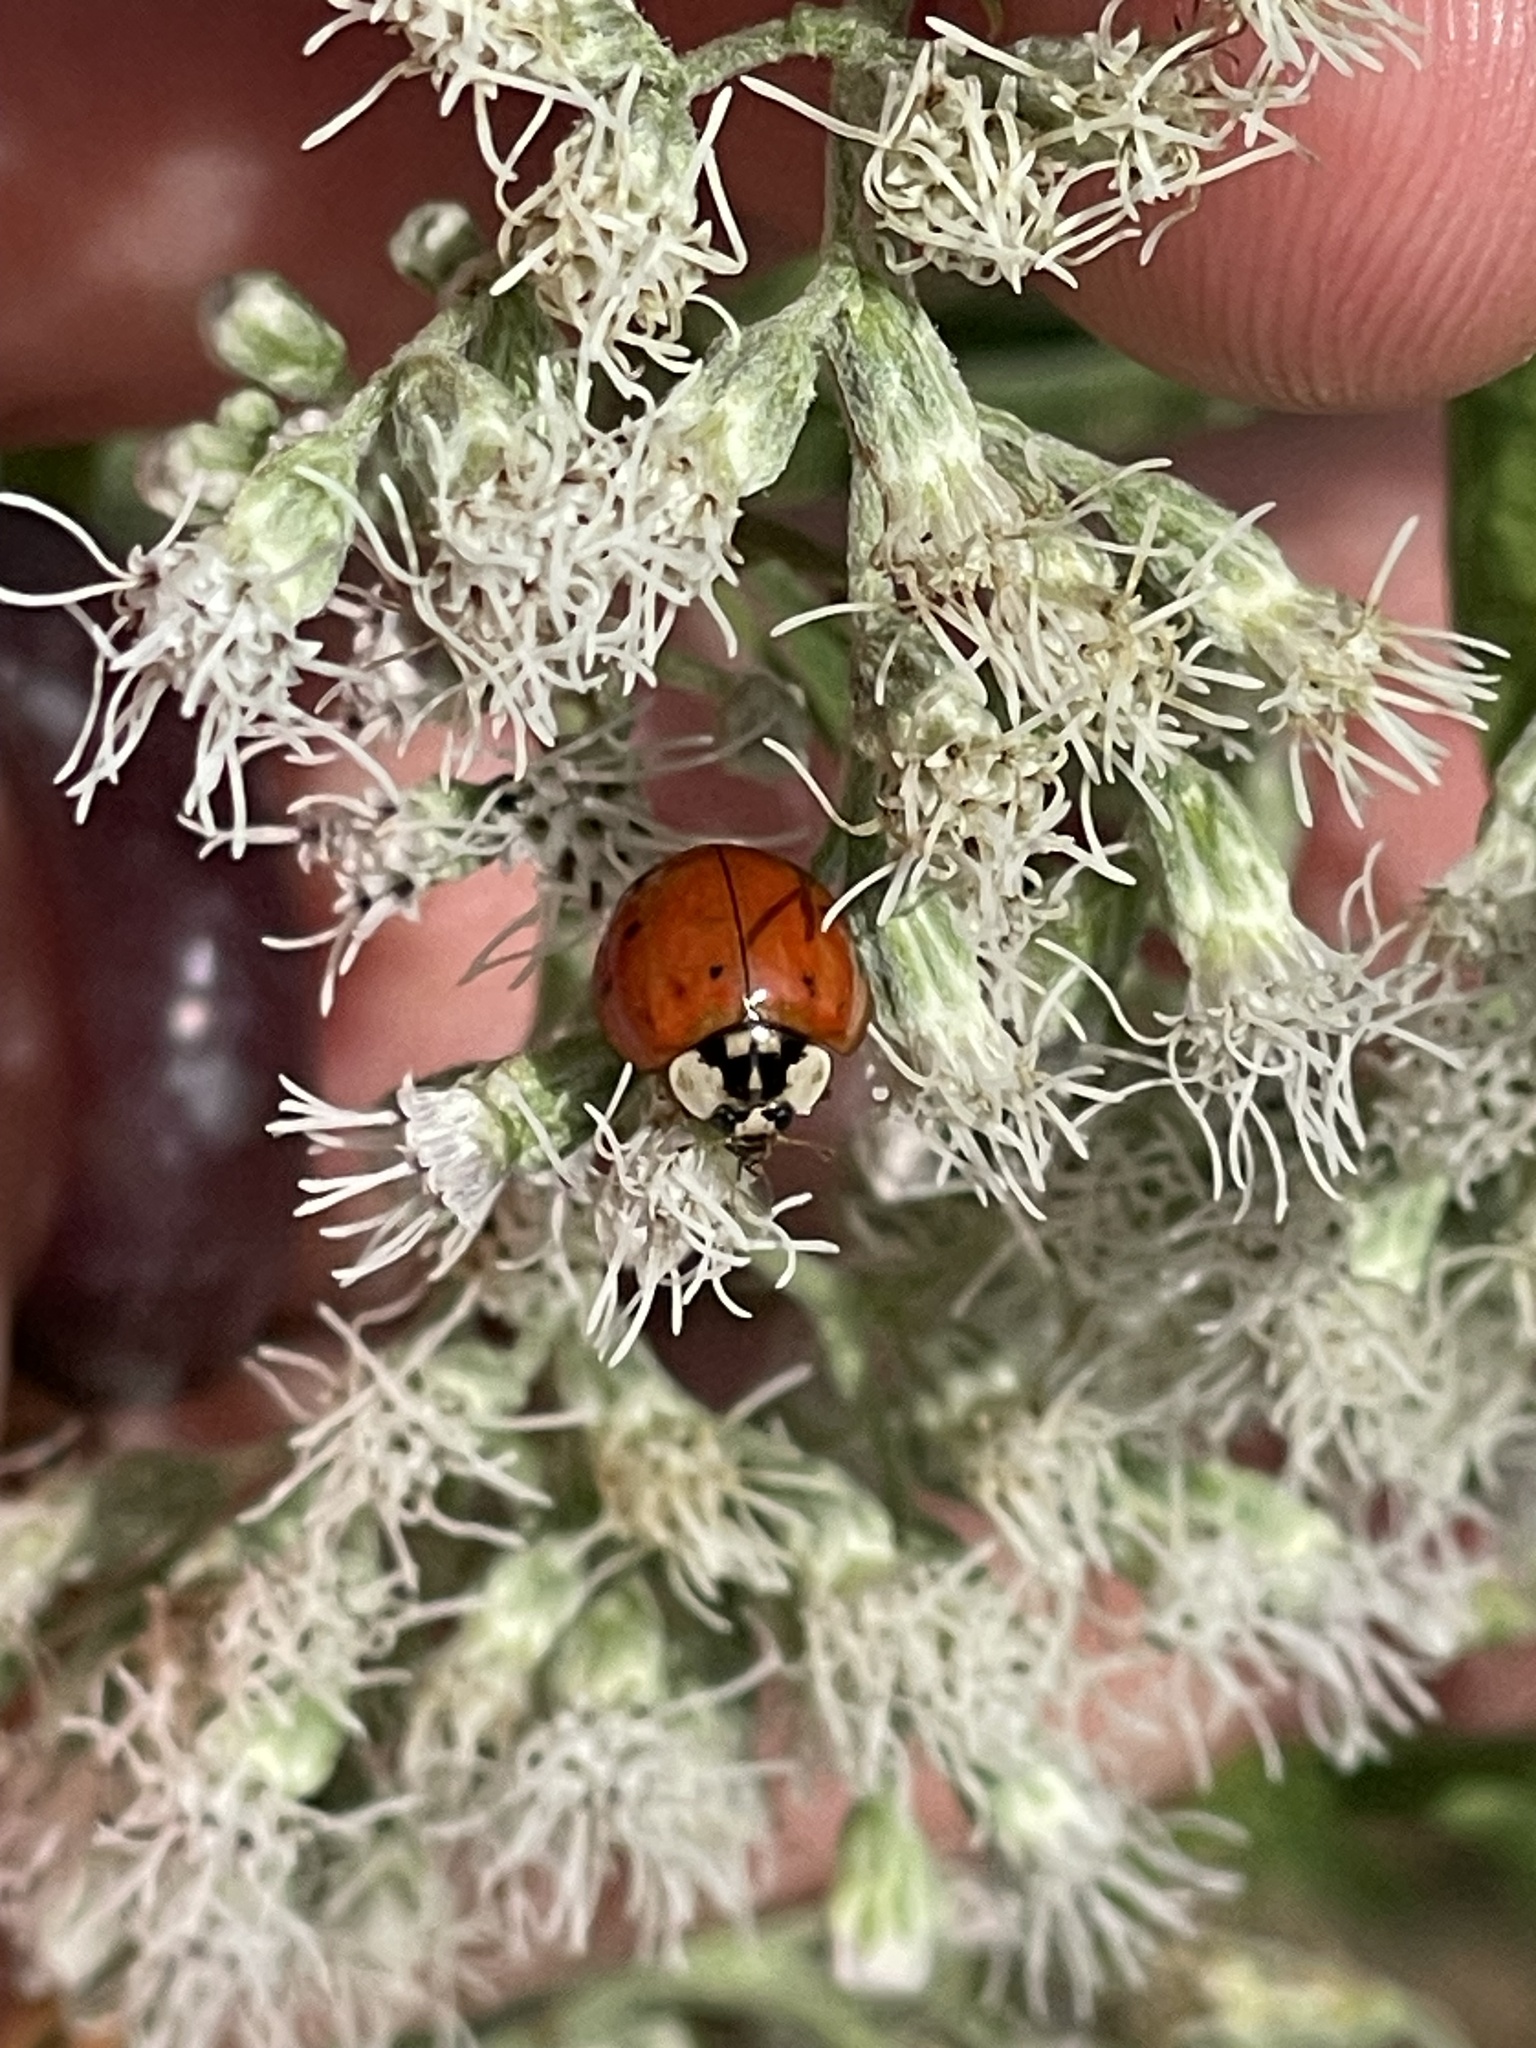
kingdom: Animalia
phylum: Arthropoda
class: Insecta
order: Coleoptera
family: Coccinellidae
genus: Harmonia
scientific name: Harmonia axyridis
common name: Harlequin ladybird
